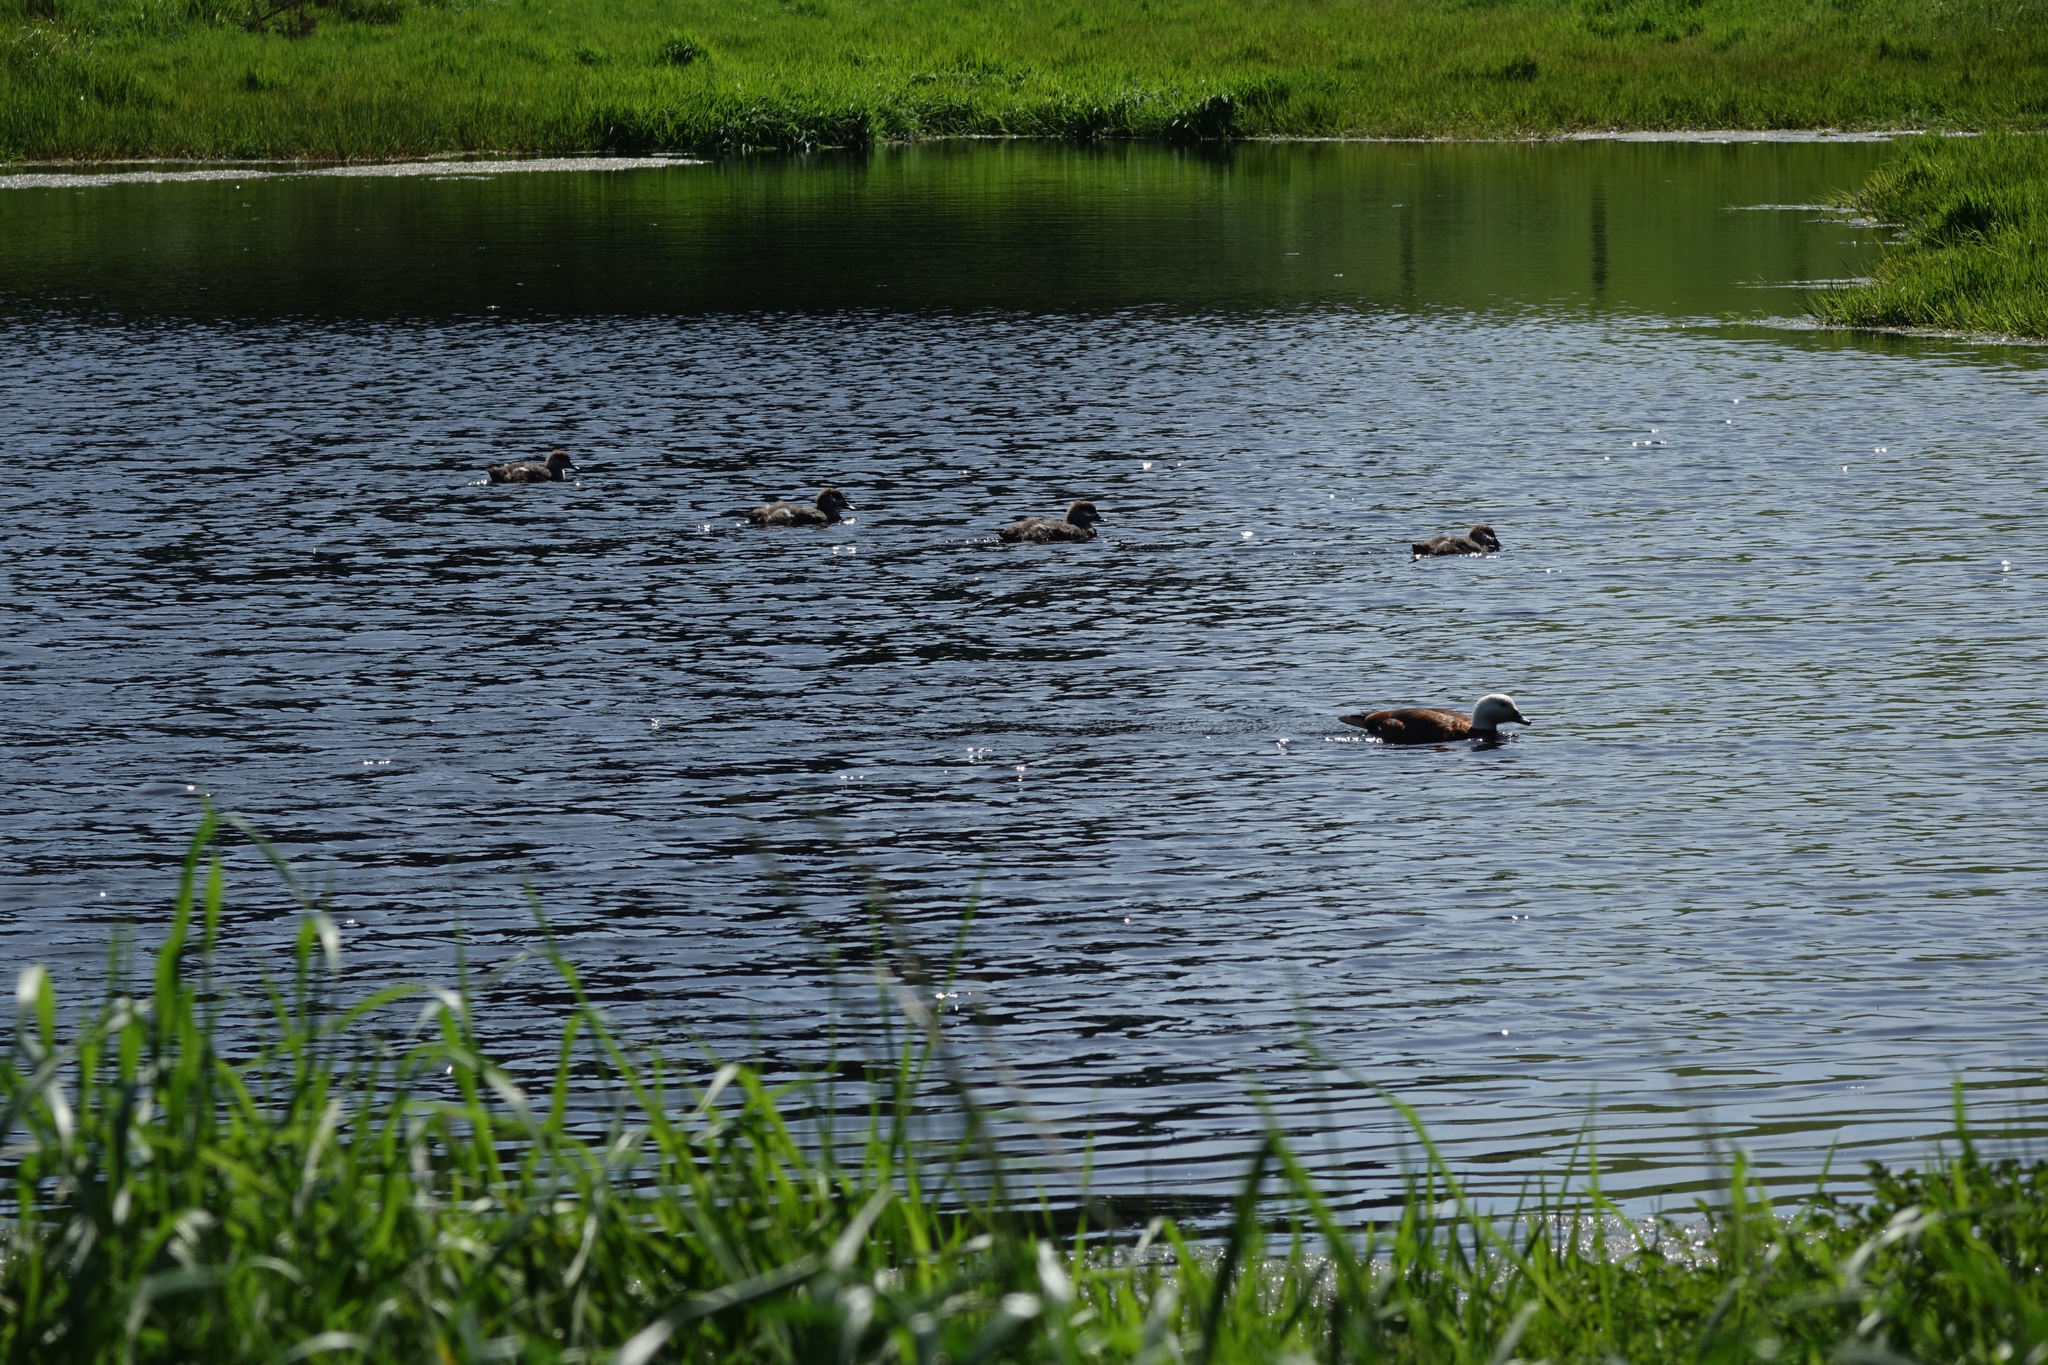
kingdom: Animalia
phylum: Chordata
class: Aves
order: Anseriformes
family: Anatidae
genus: Tadorna
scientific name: Tadorna variegata
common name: Paradise shelduck
